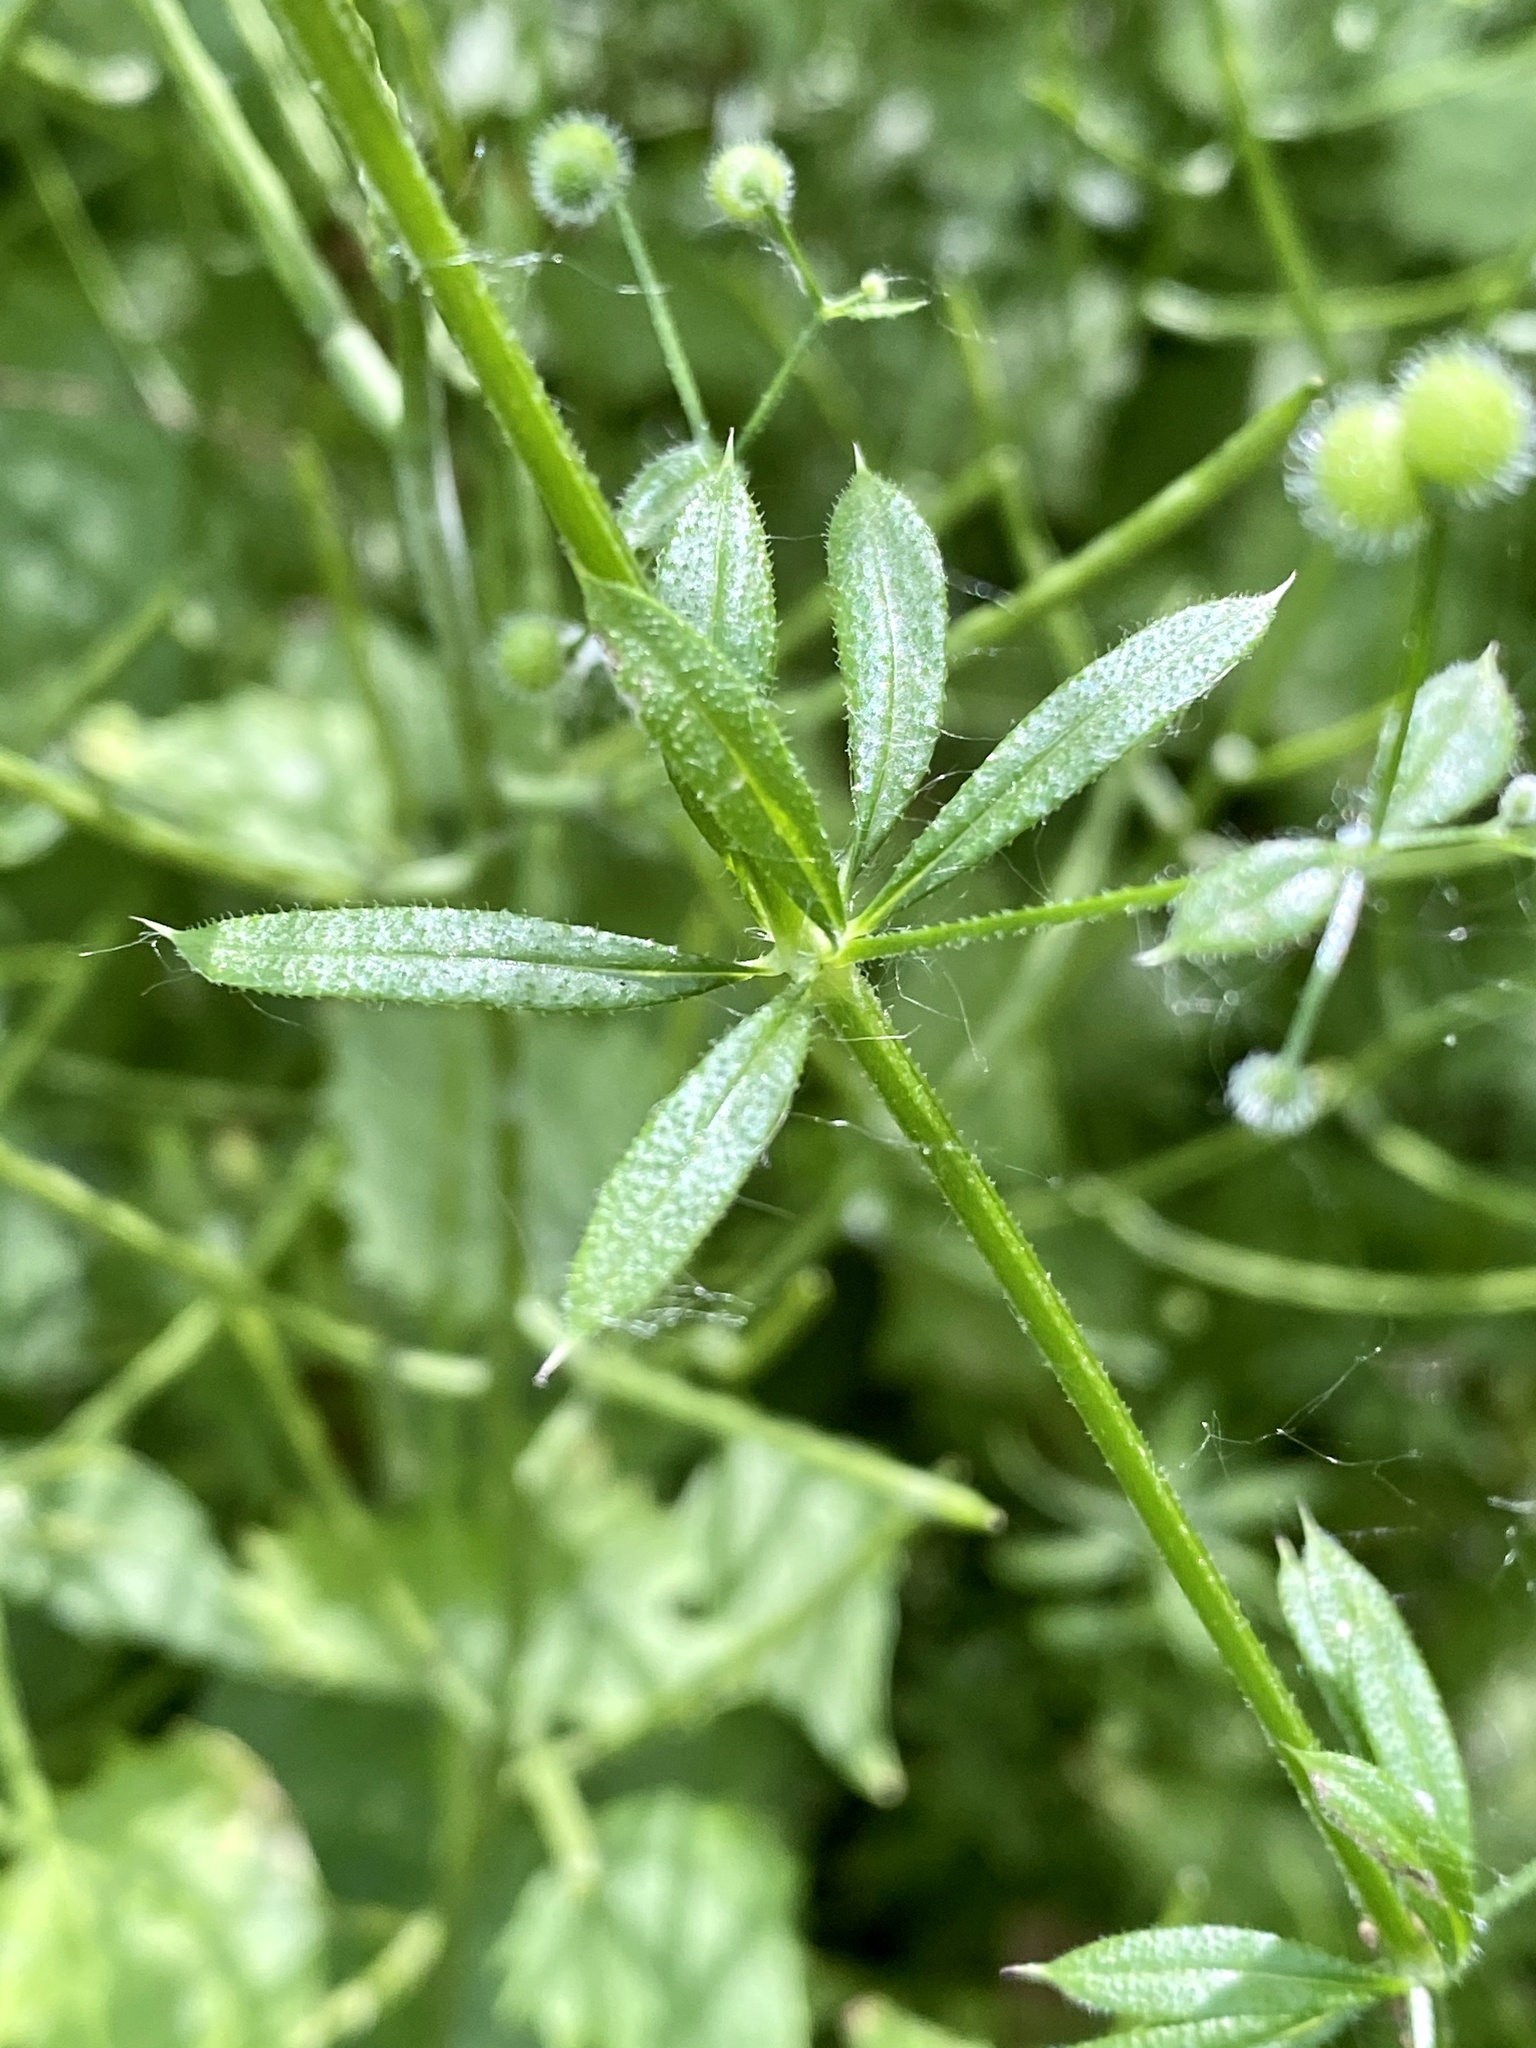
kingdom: Plantae
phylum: Tracheophyta
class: Magnoliopsida
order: Gentianales
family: Rubiaceae
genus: Galium
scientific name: Galium aparine
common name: Cleavers
